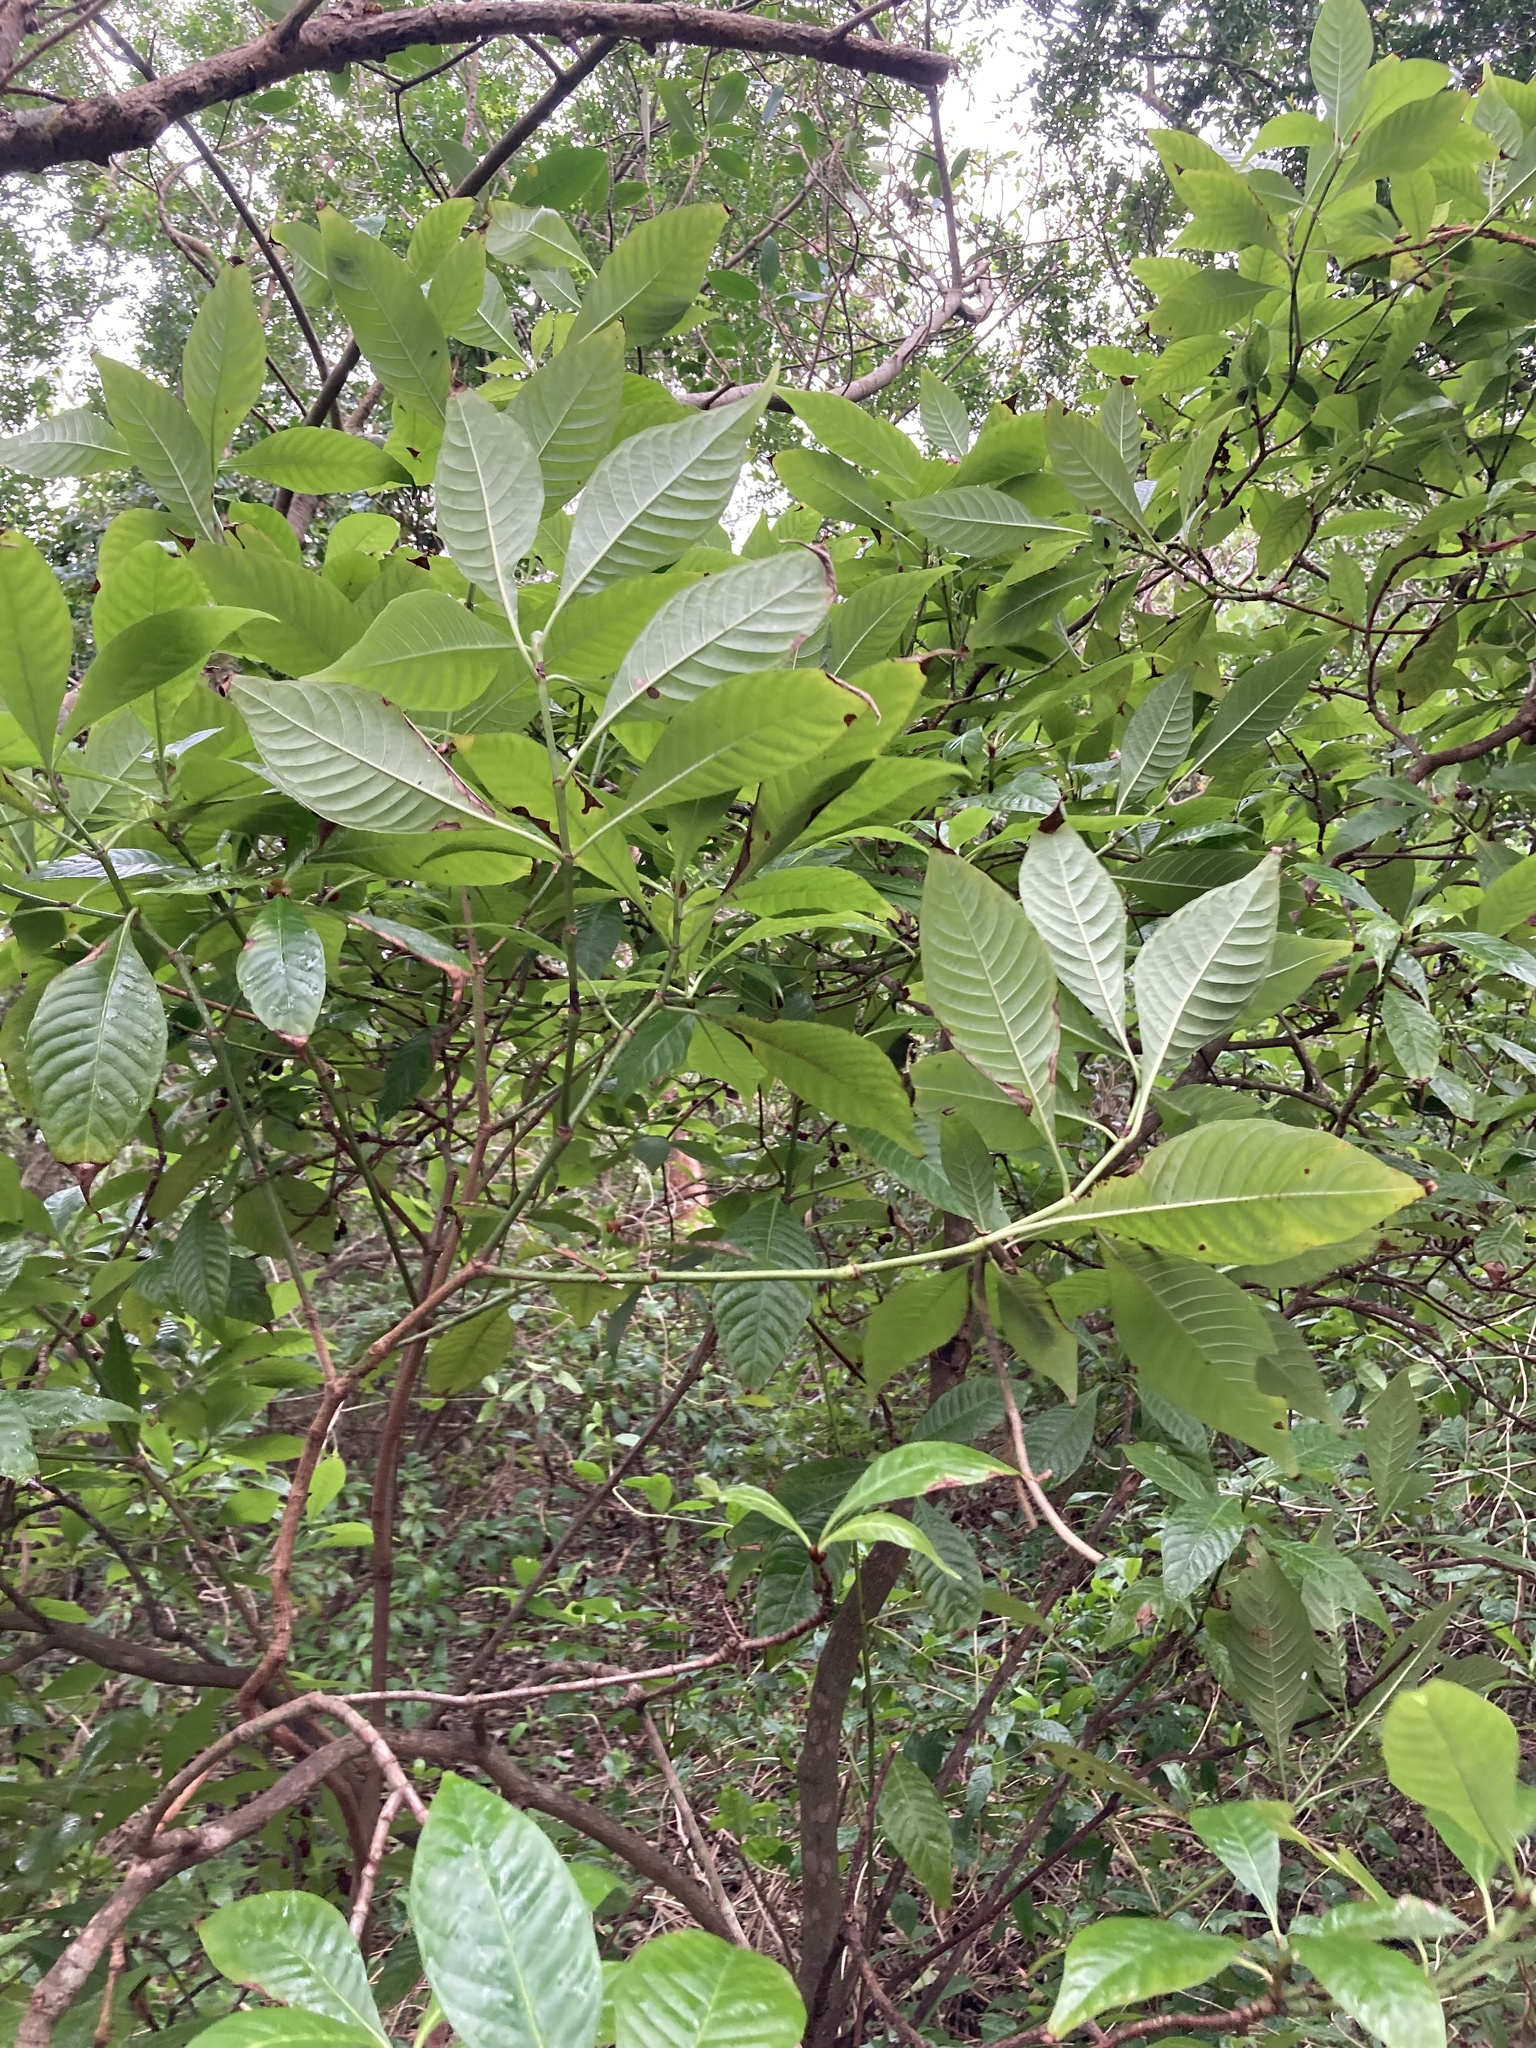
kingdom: Plantae
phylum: Tracheophyta
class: Magnoliopsida
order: Gentianales
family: Rubiaceae
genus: Psychotria
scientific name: Psychotria nervosa
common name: Bastard cankerberry
